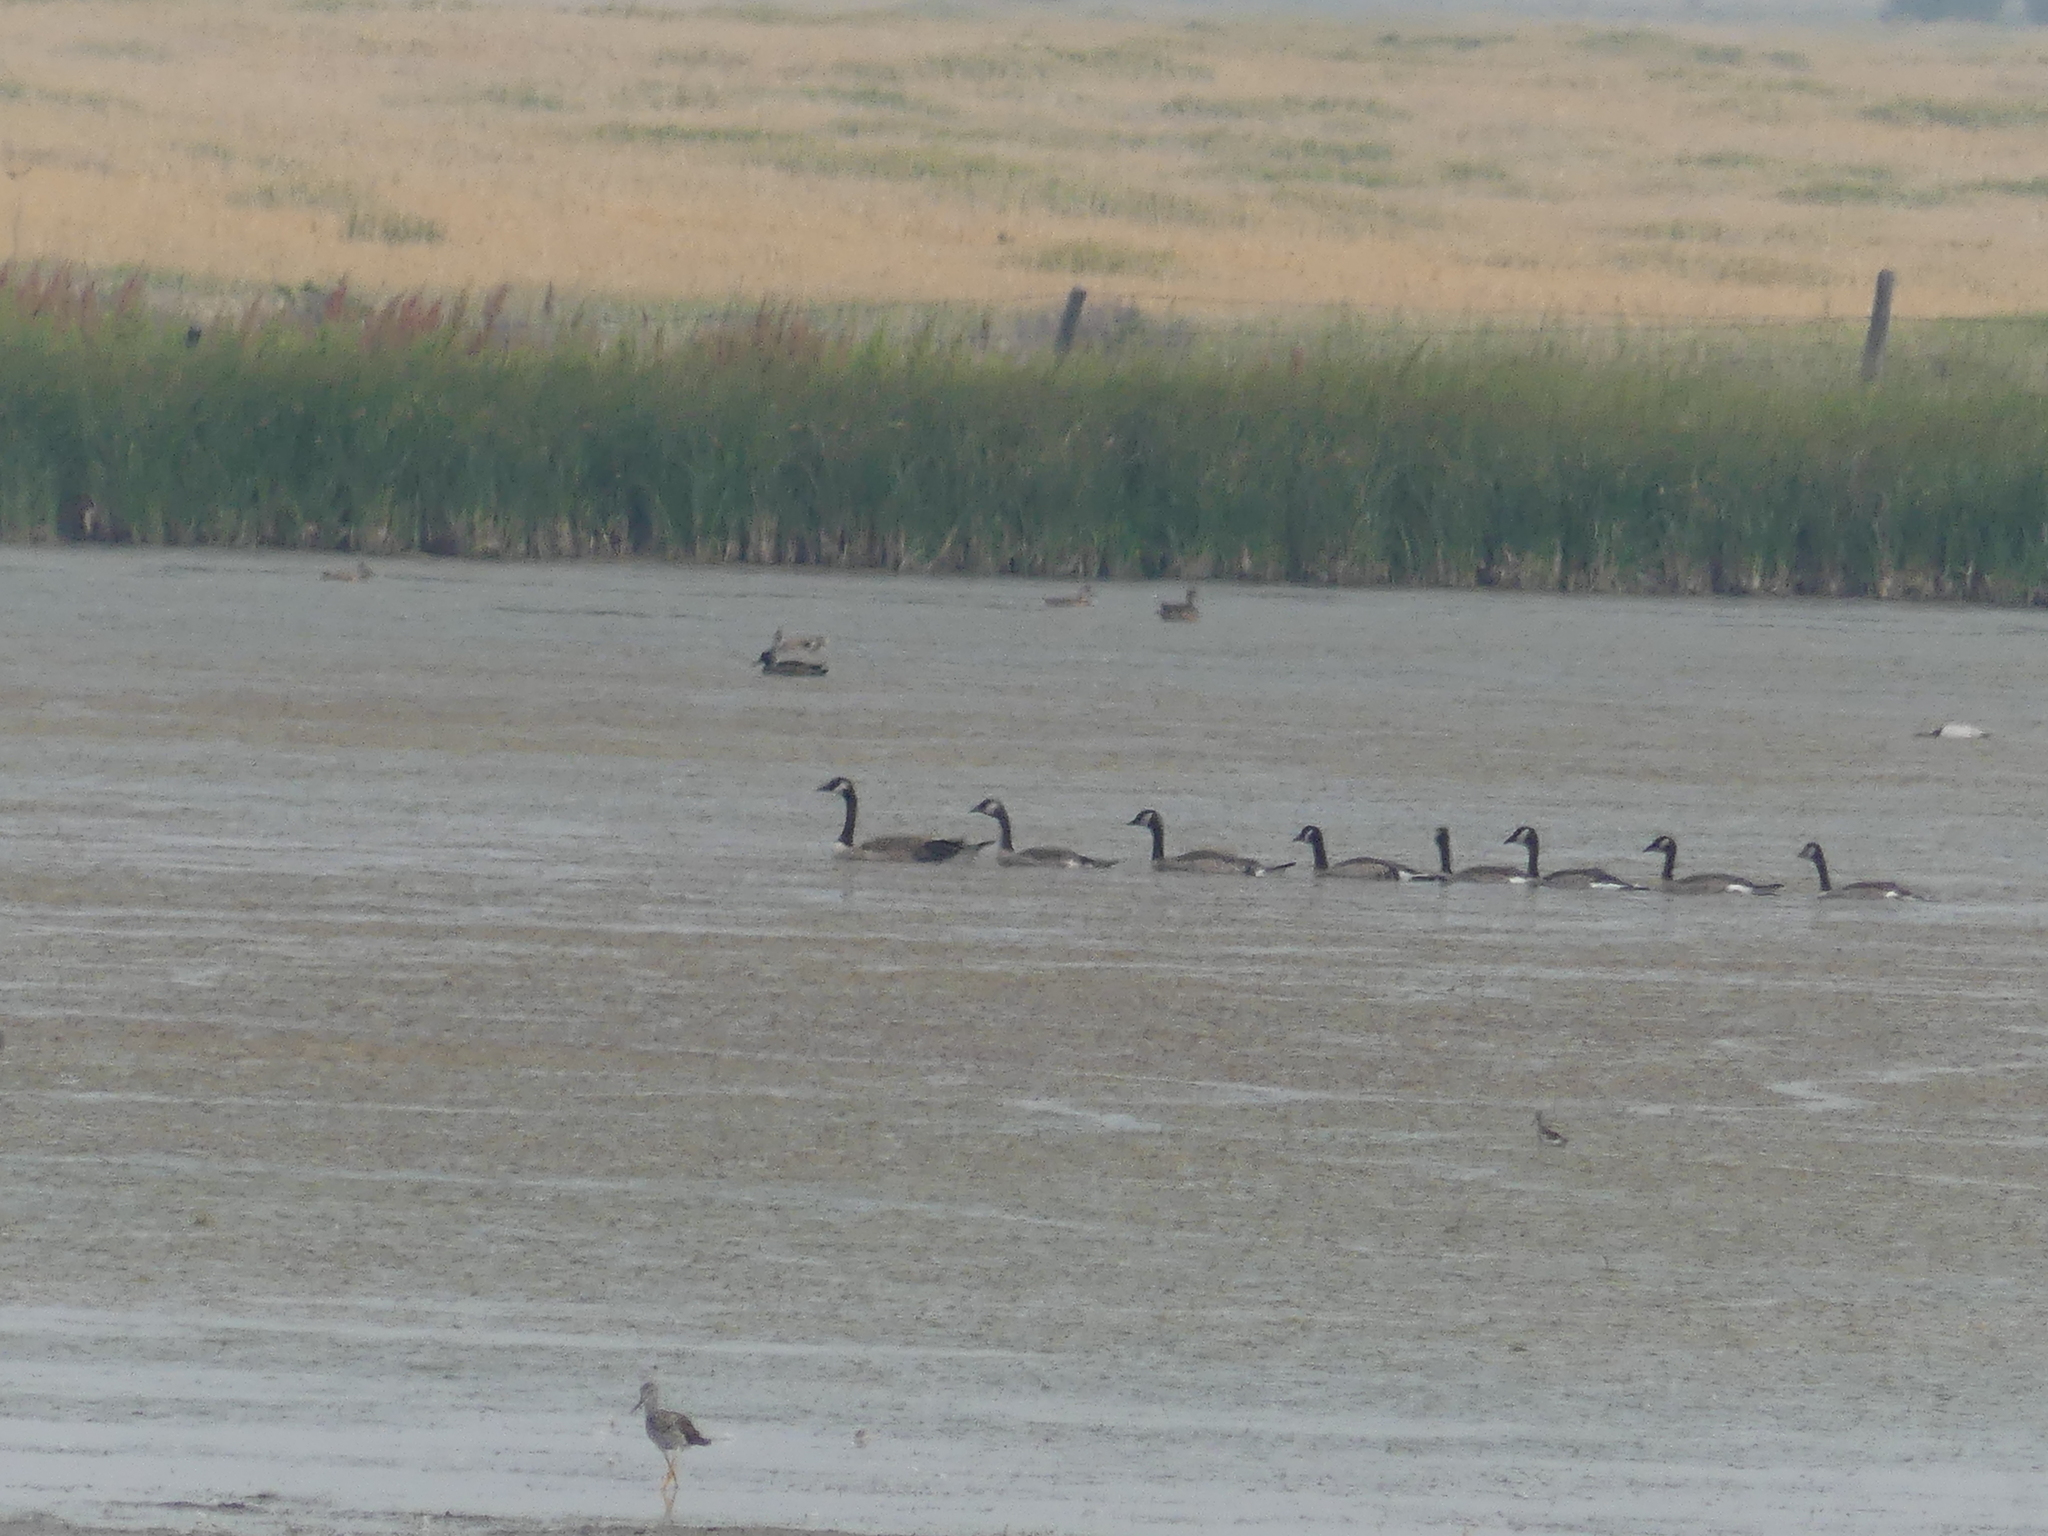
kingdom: Animalia
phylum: Chordata
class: Aves
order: Anseriformes
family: Anatidae
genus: Branta
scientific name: Branta canadensis
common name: Canada goose
